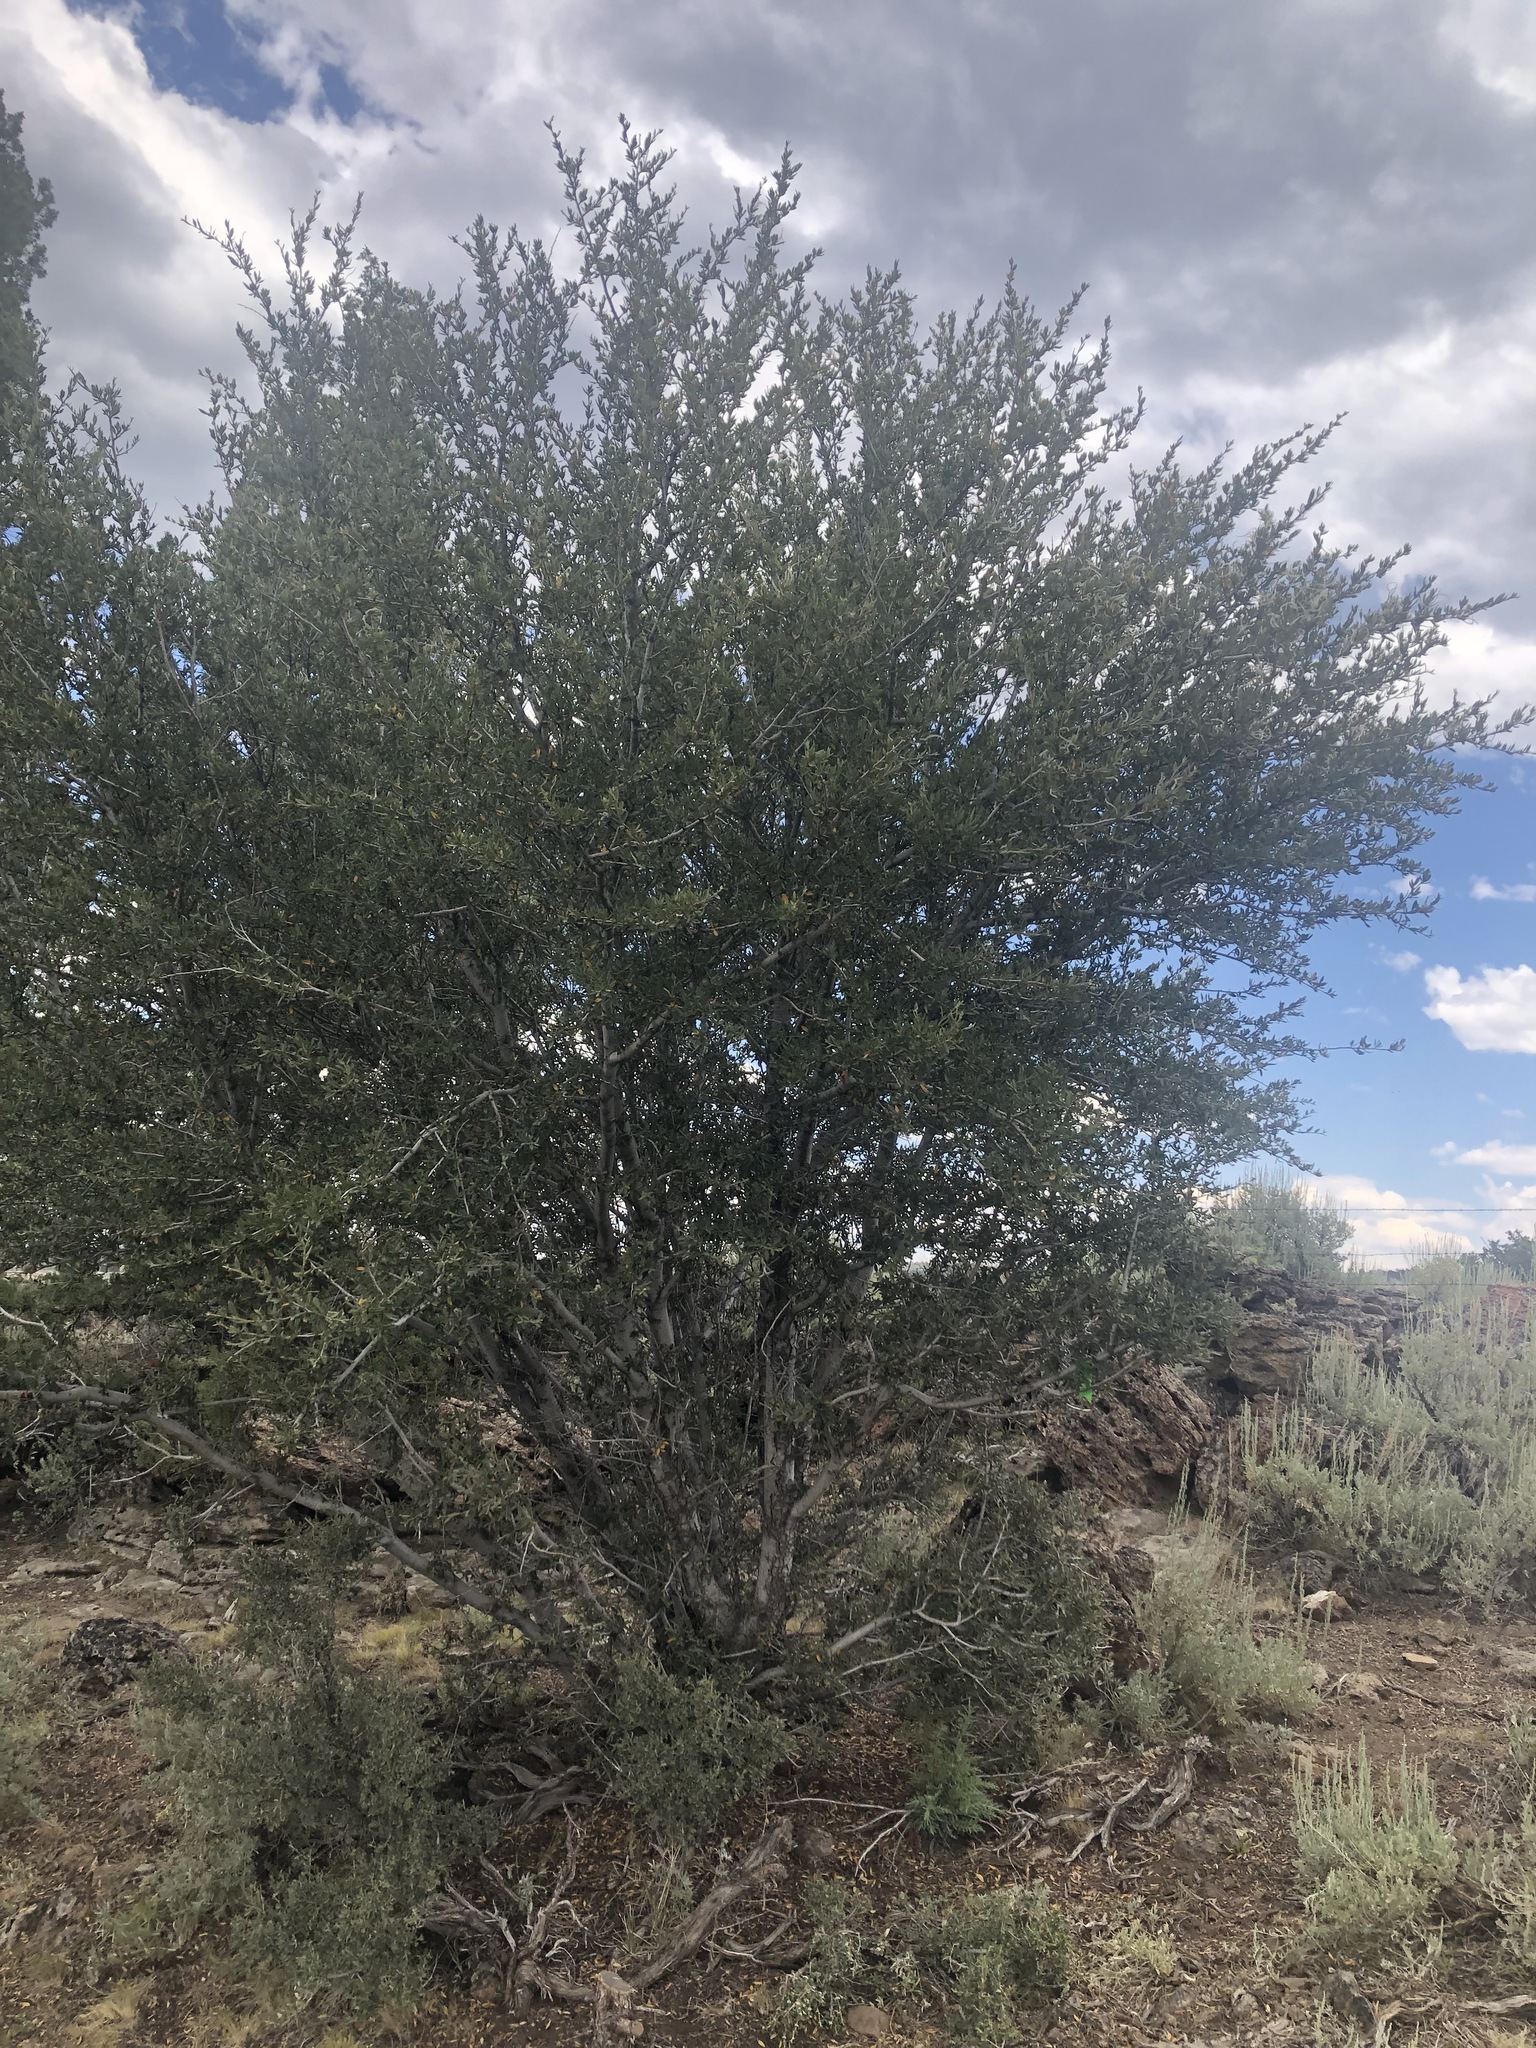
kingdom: Plantae
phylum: Tracheophyta
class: Magnoliopsida
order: Rosales
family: Rosaceae
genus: Cercocarpus
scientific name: Cercocarpus ledifolius
